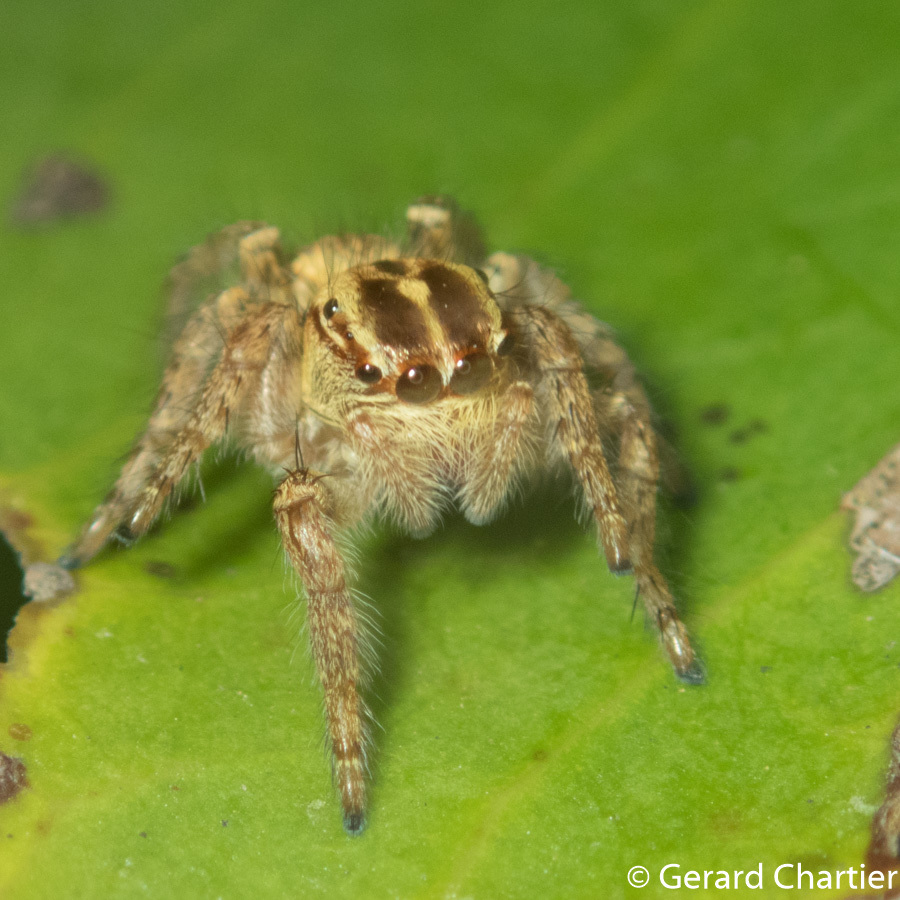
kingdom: Animalia
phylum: Arthropoda
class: Arachnida
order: Araneae
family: Salticidae
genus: Carrhotus
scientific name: Carrhotus viduus
